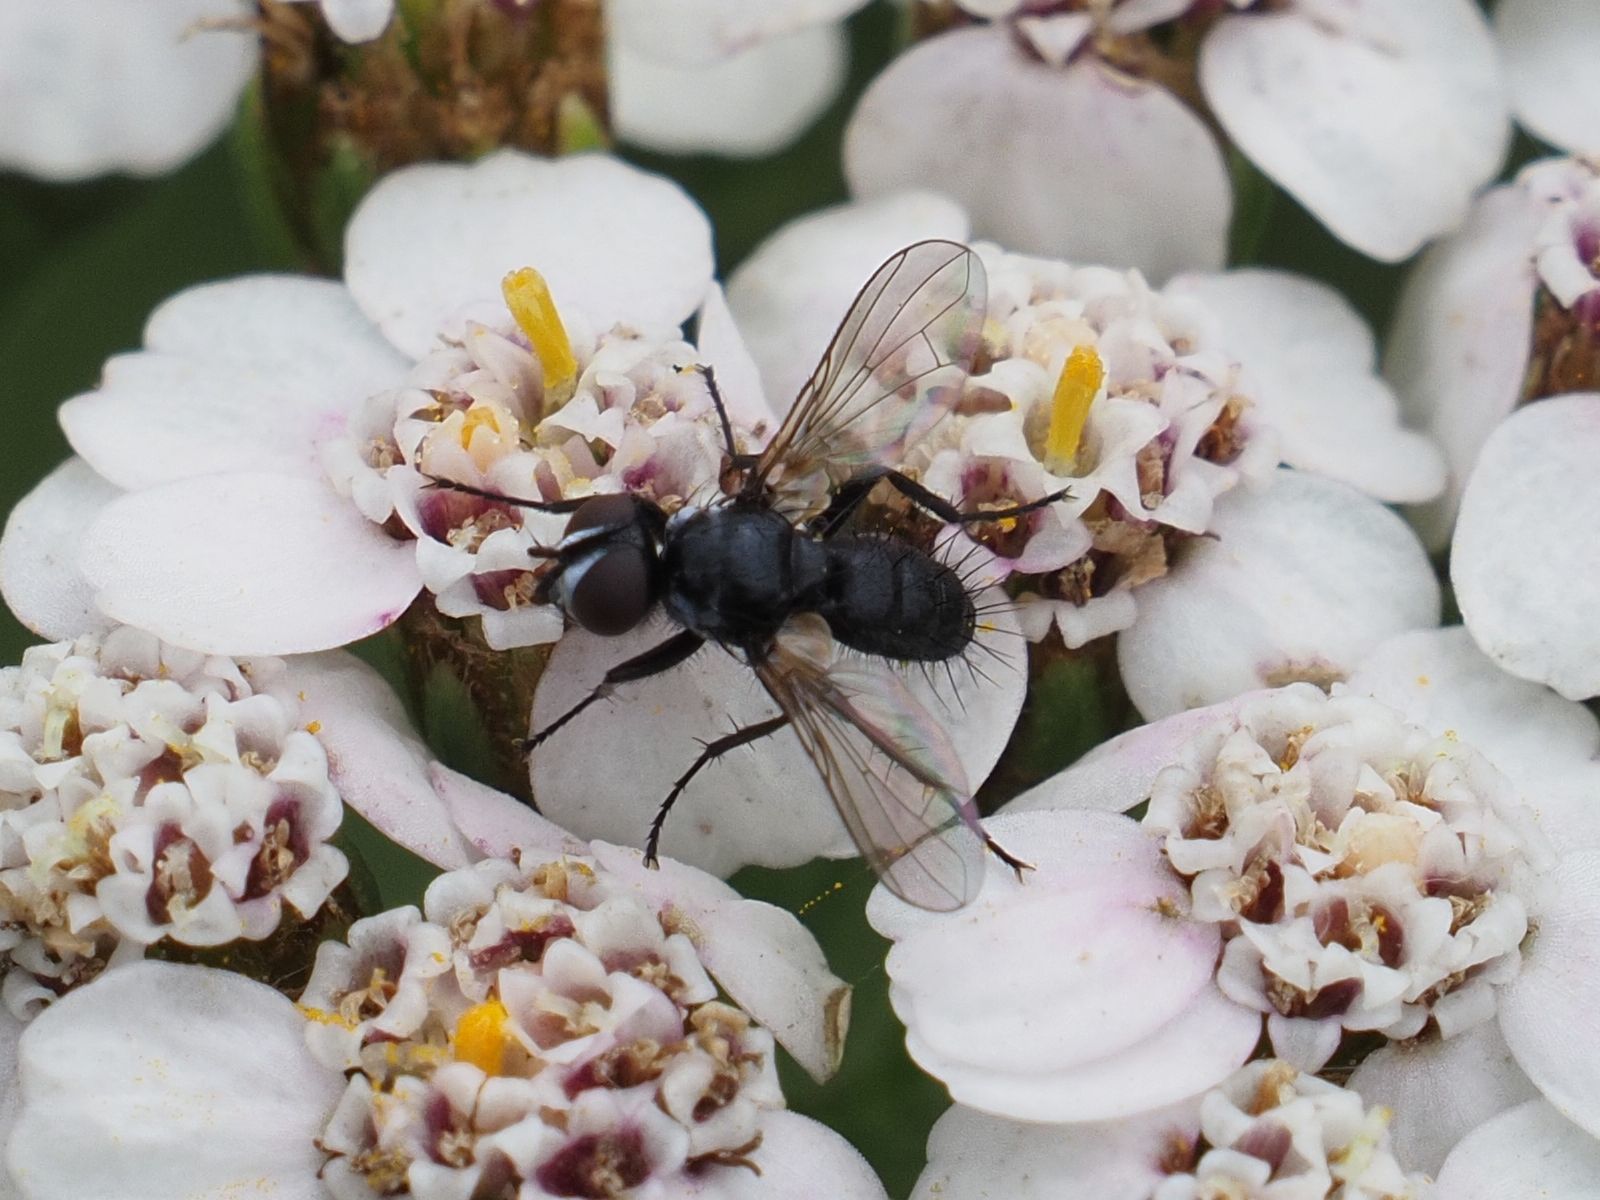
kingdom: Animalia
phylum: Arthropoda
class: Insecta
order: Diptera
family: Tachinidae
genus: Phania
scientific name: Phania funesta
